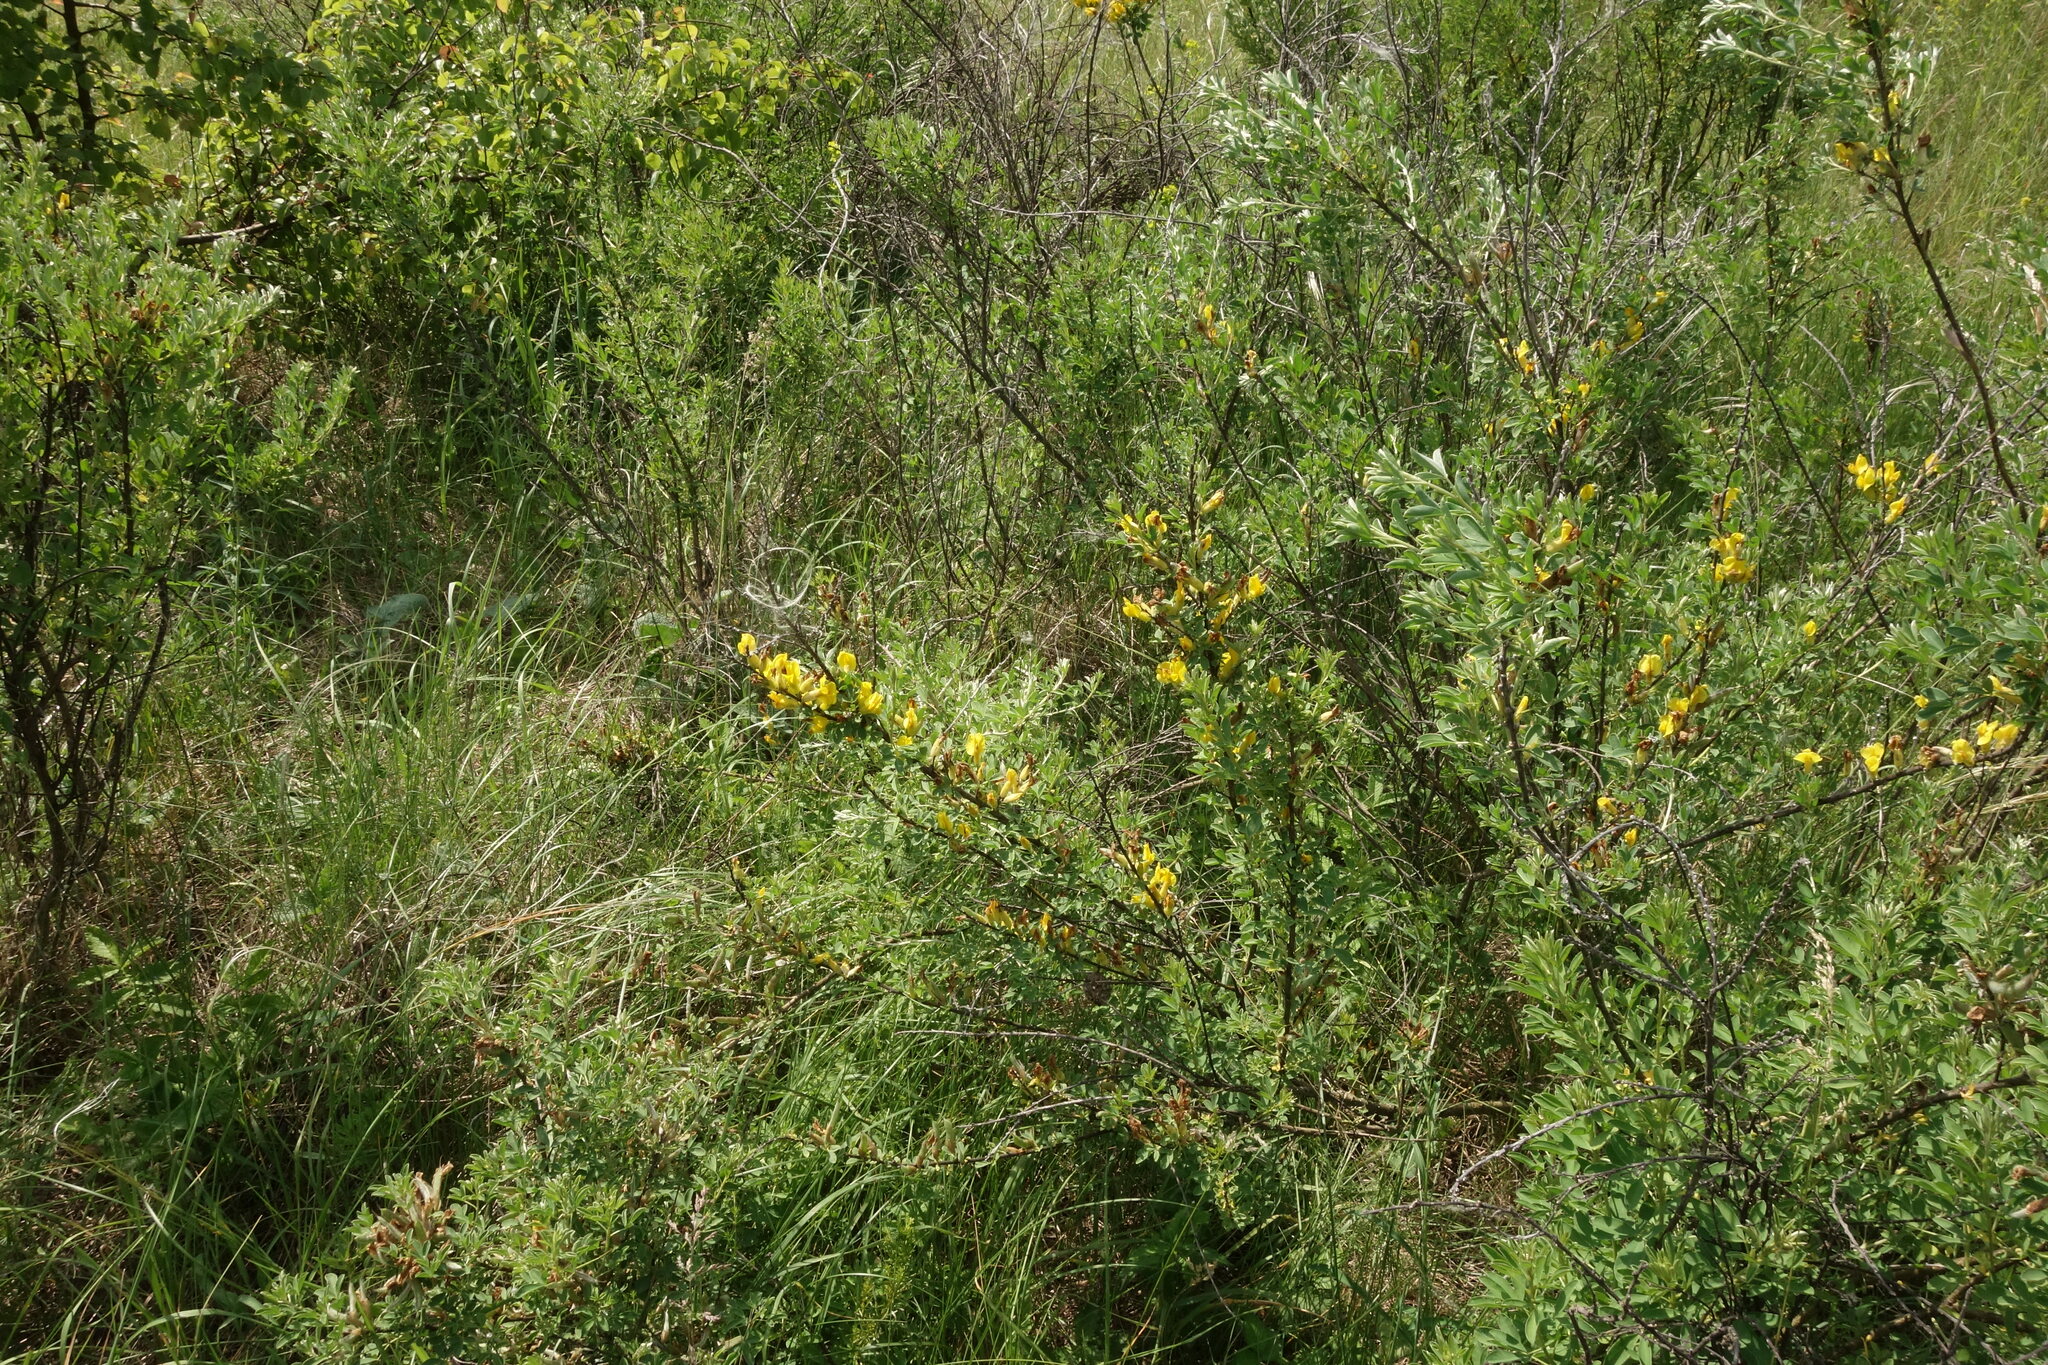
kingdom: Plantae
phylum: Tracheophyta
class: Magnoliopsida
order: Fabales
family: Fabaceae
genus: Chamaecytisus
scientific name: Chamaecytisus ruthenicus
